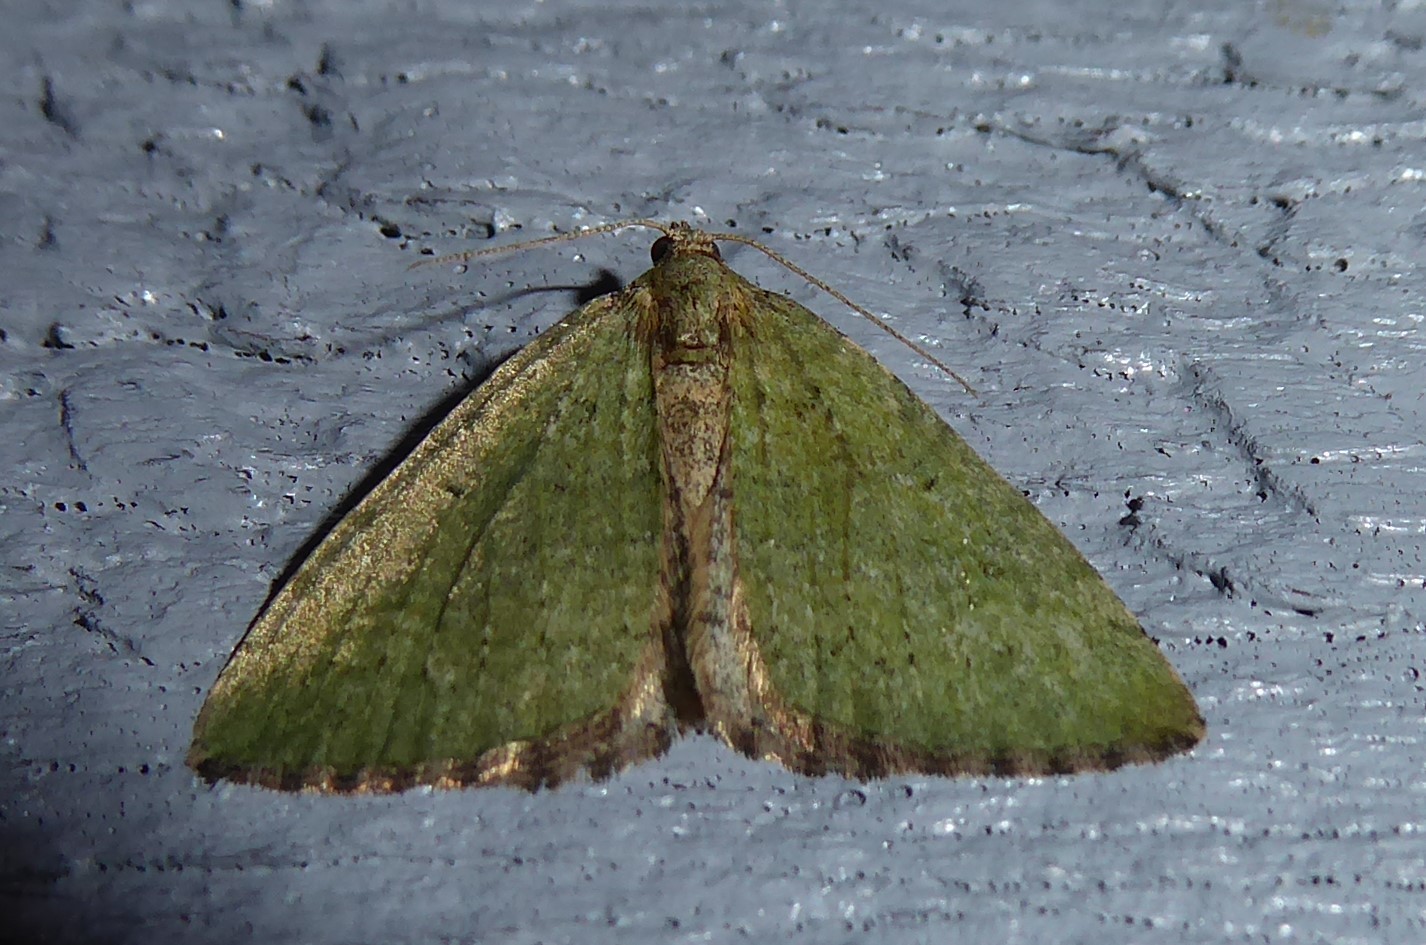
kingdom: Animalia
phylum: Arthropoda
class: Insecta
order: Lepidoptera
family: Geometridae
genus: Epyaxa
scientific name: Epyaxa rosearia
